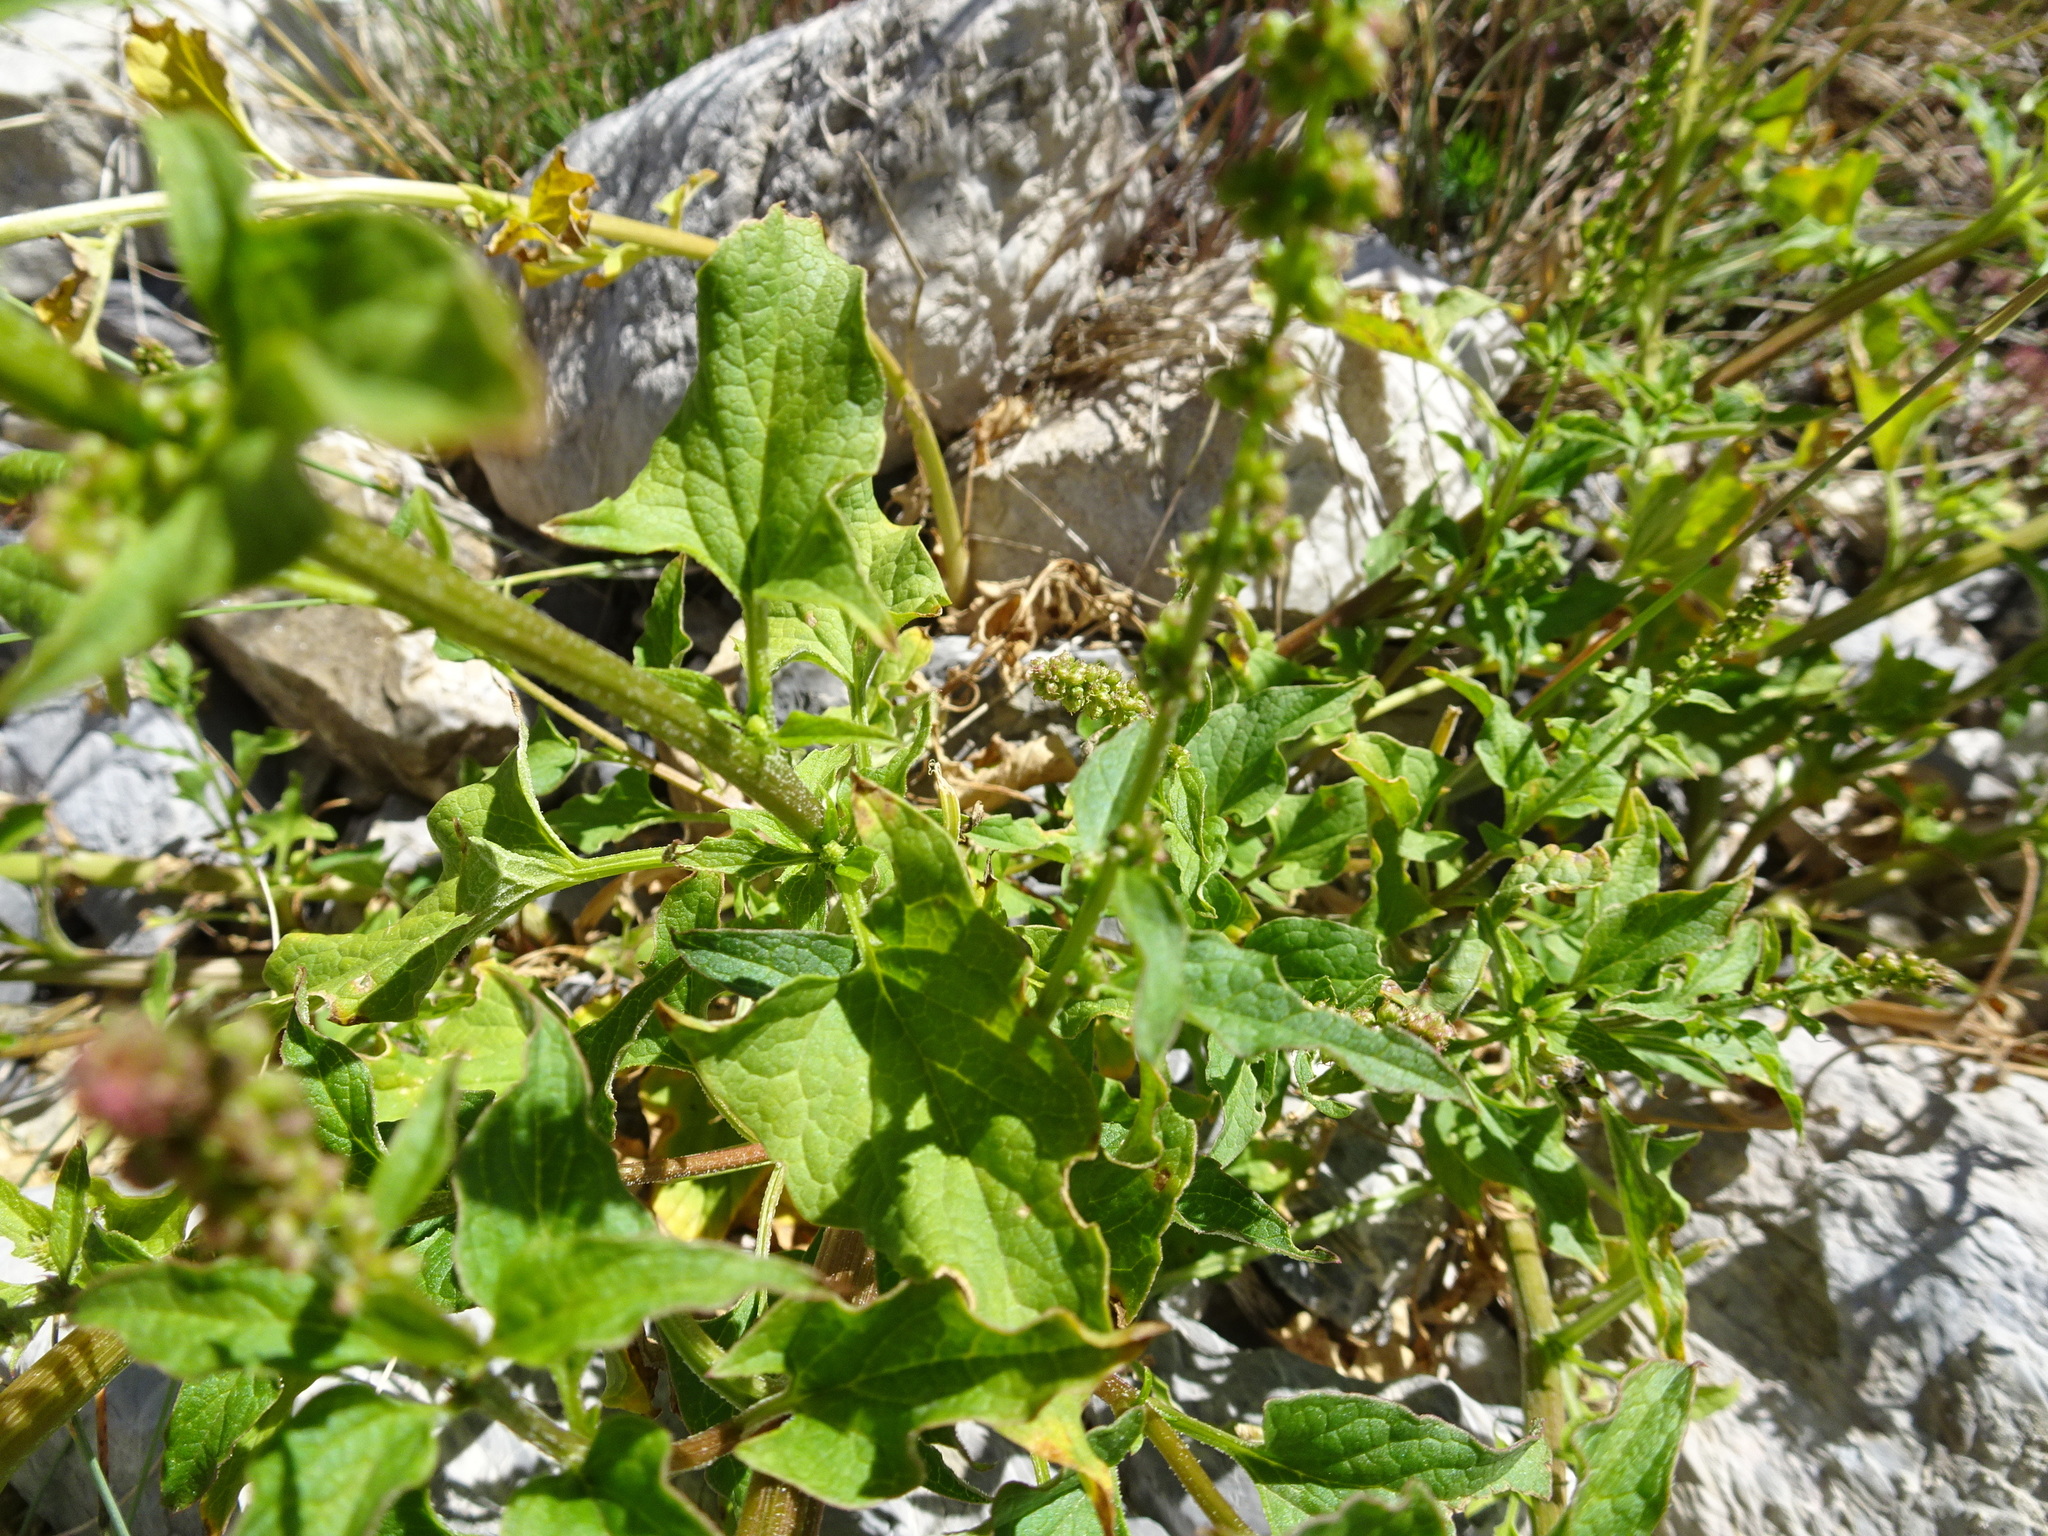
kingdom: Plantae
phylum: Tracheophyta
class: Magnoliopsida
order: Caryophyllales
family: Amaranthaceae
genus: Blitum
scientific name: Blitum bonus-henricus
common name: Good king henry
